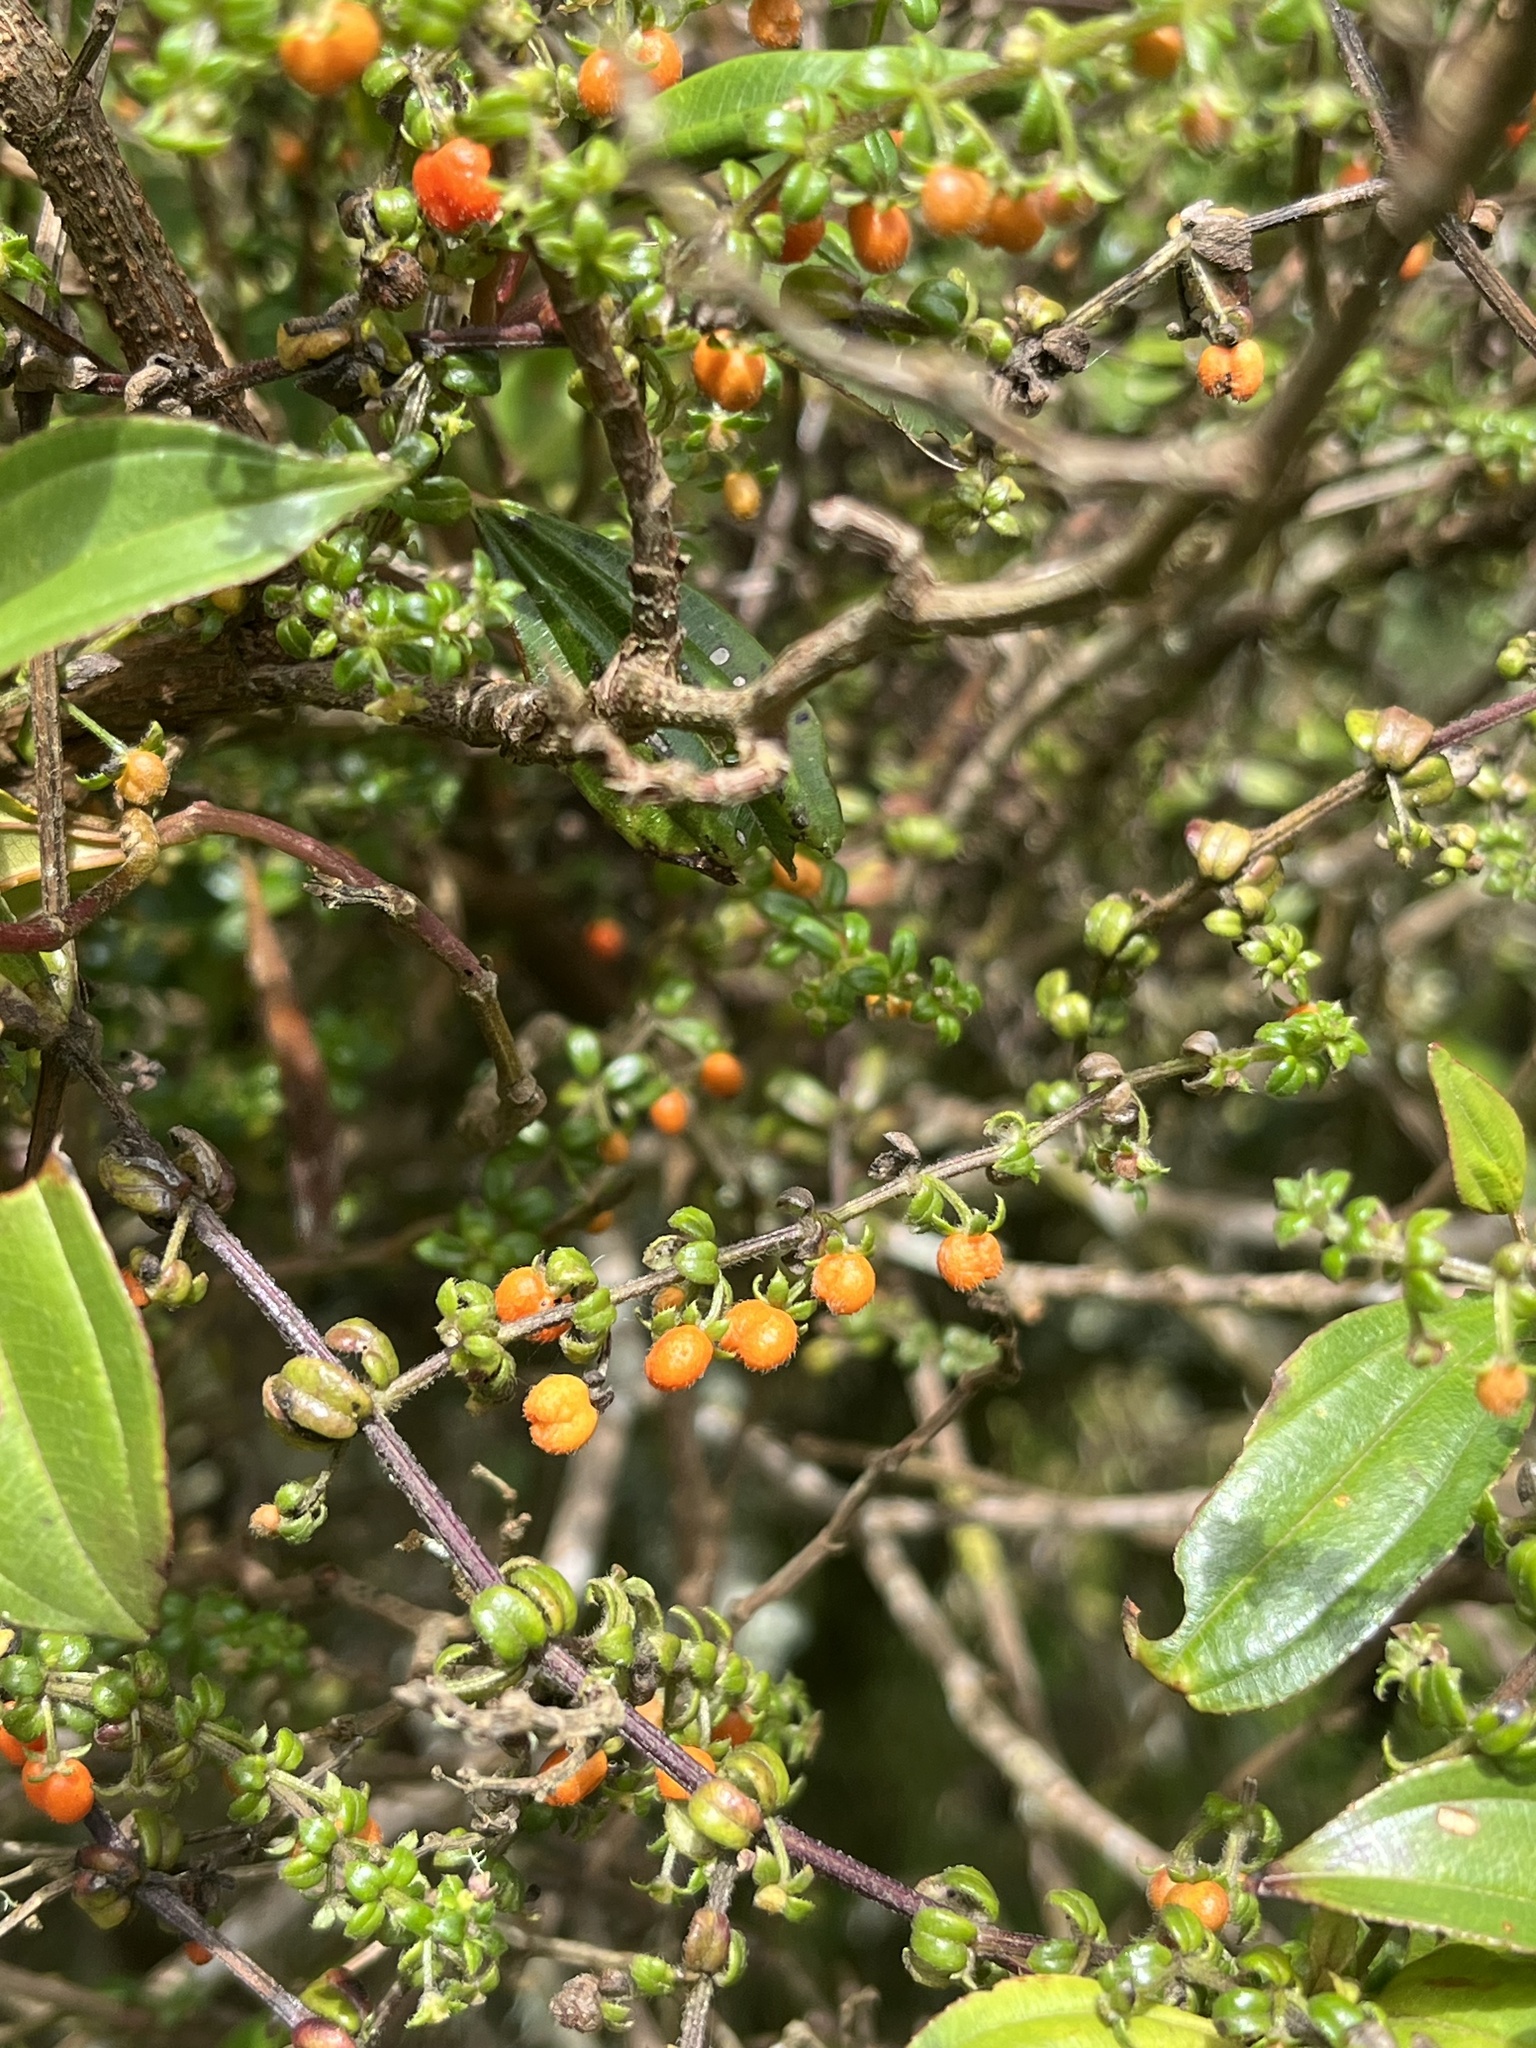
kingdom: Plantae
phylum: Tracheophyta
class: Magnoliopsida
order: Gentianales
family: Rubiaceae
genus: Galium
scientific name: Galium hypocarpium
